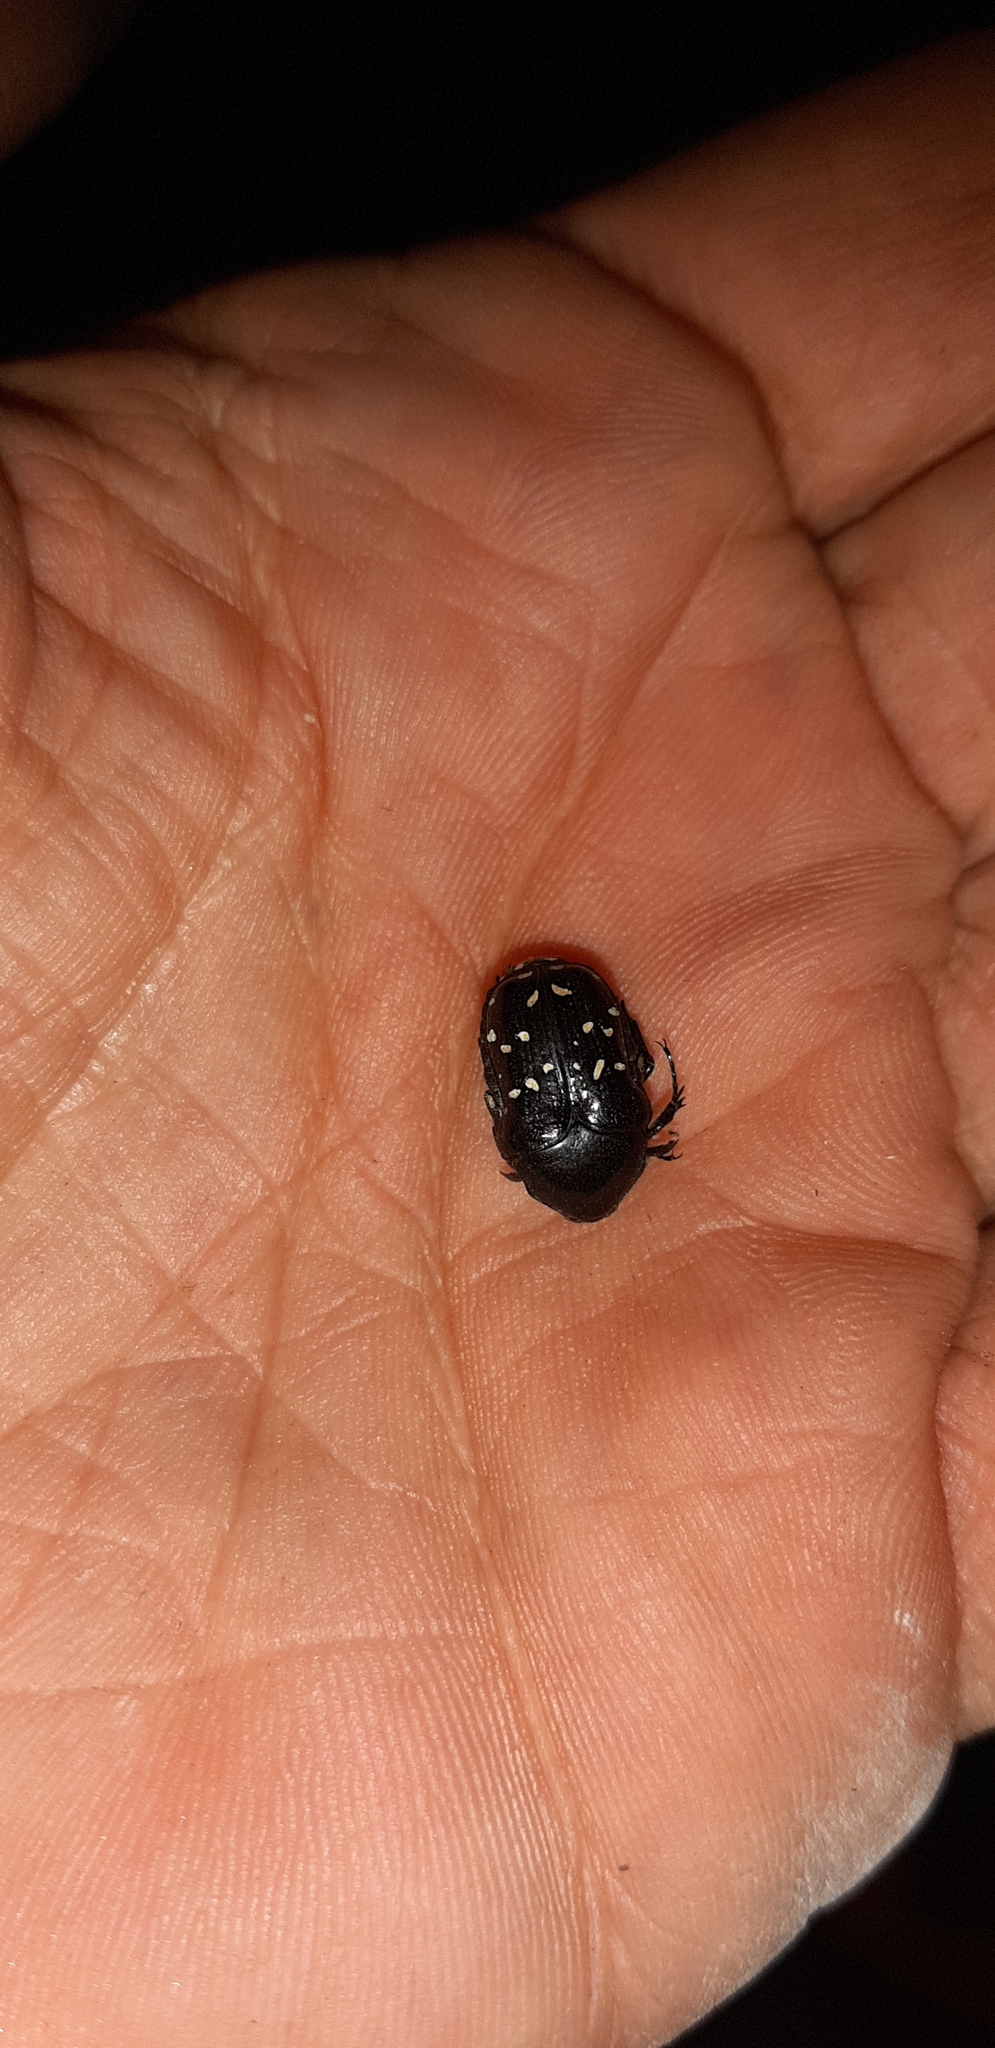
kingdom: Animalia
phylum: Arthropoda
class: Insecta
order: Coleoptera
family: Scarabaeidae
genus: Clinteroides
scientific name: Clinteroides permutans
